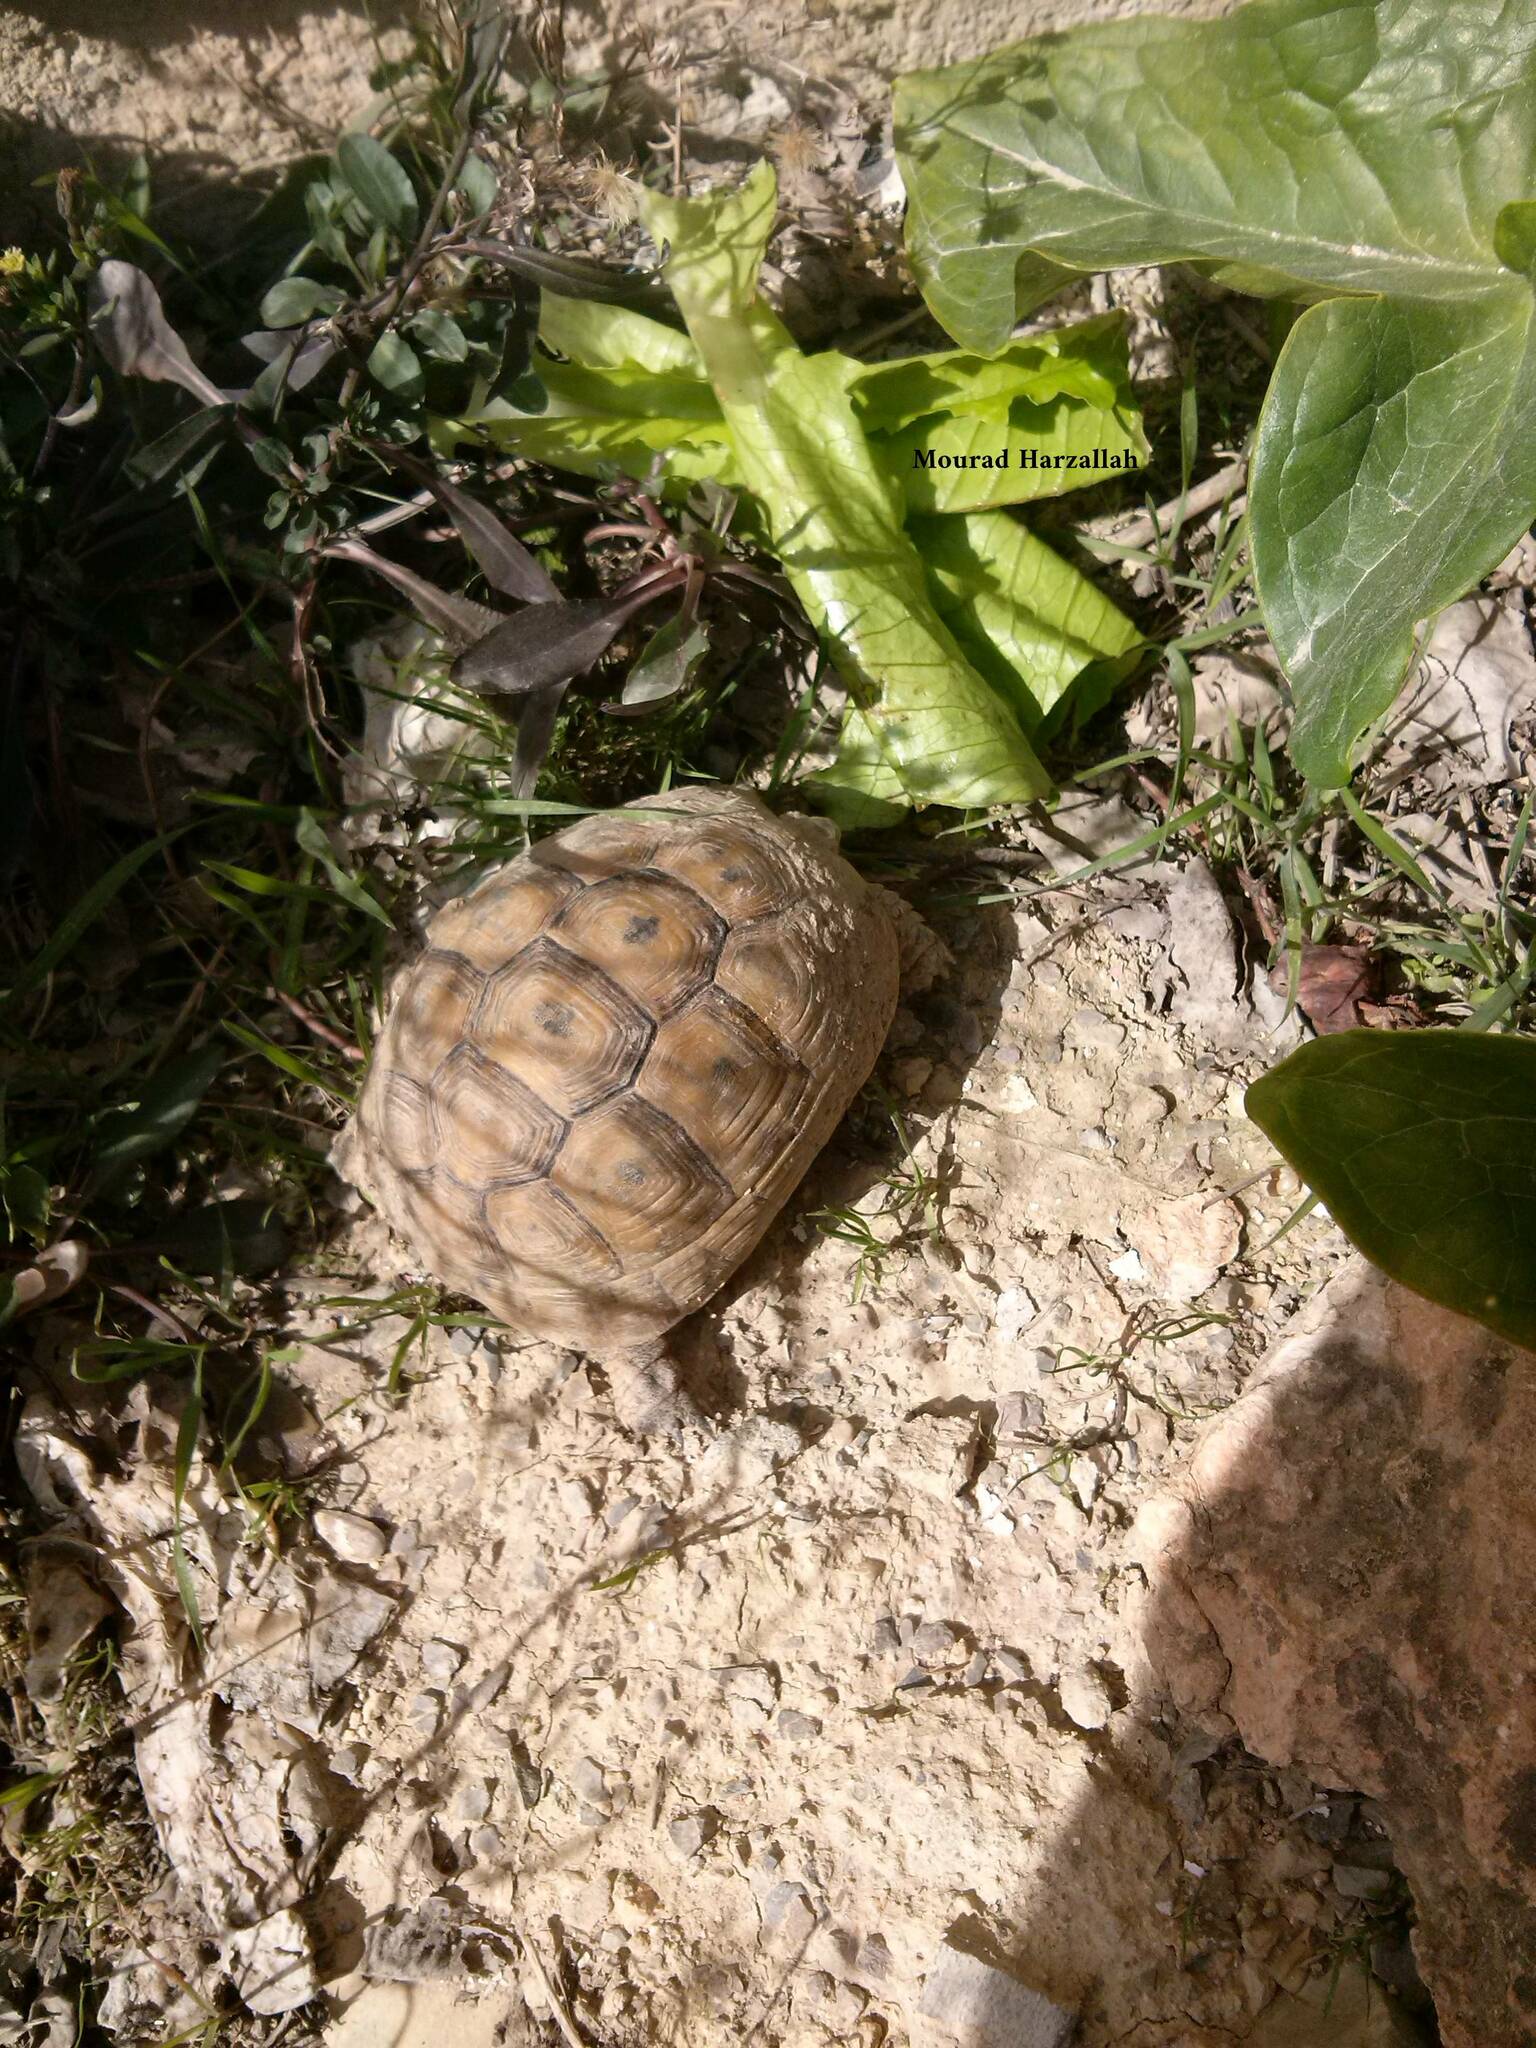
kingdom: Animalia
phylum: Chordata
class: Testudines
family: Testudinidae
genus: Testudo
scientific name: Testudo graeca
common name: Common tortoise
